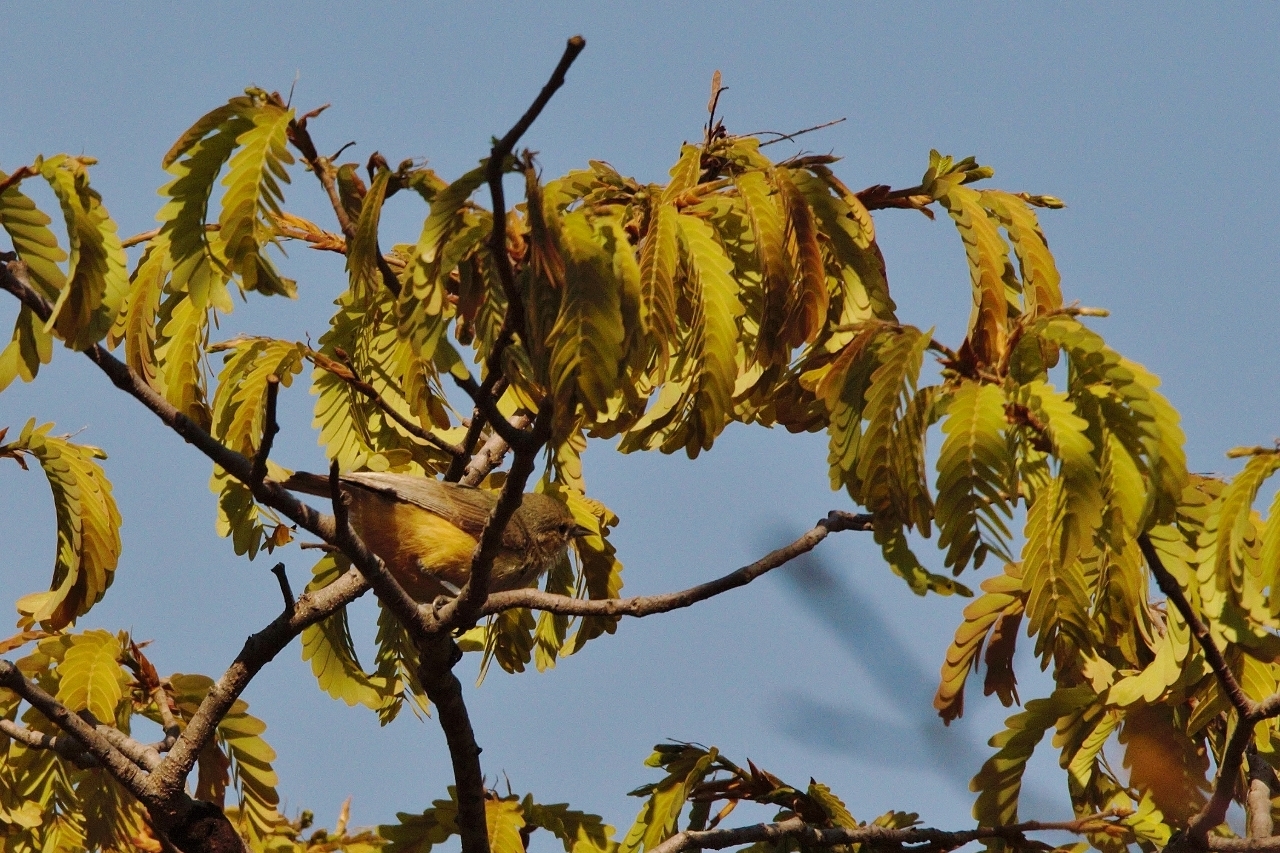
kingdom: Animalia
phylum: Chordata
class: Aves
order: Passeriformes
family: Remizidae
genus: Anthoscopus
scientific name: Anthoscopus caroli
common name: Grey penduline tit
